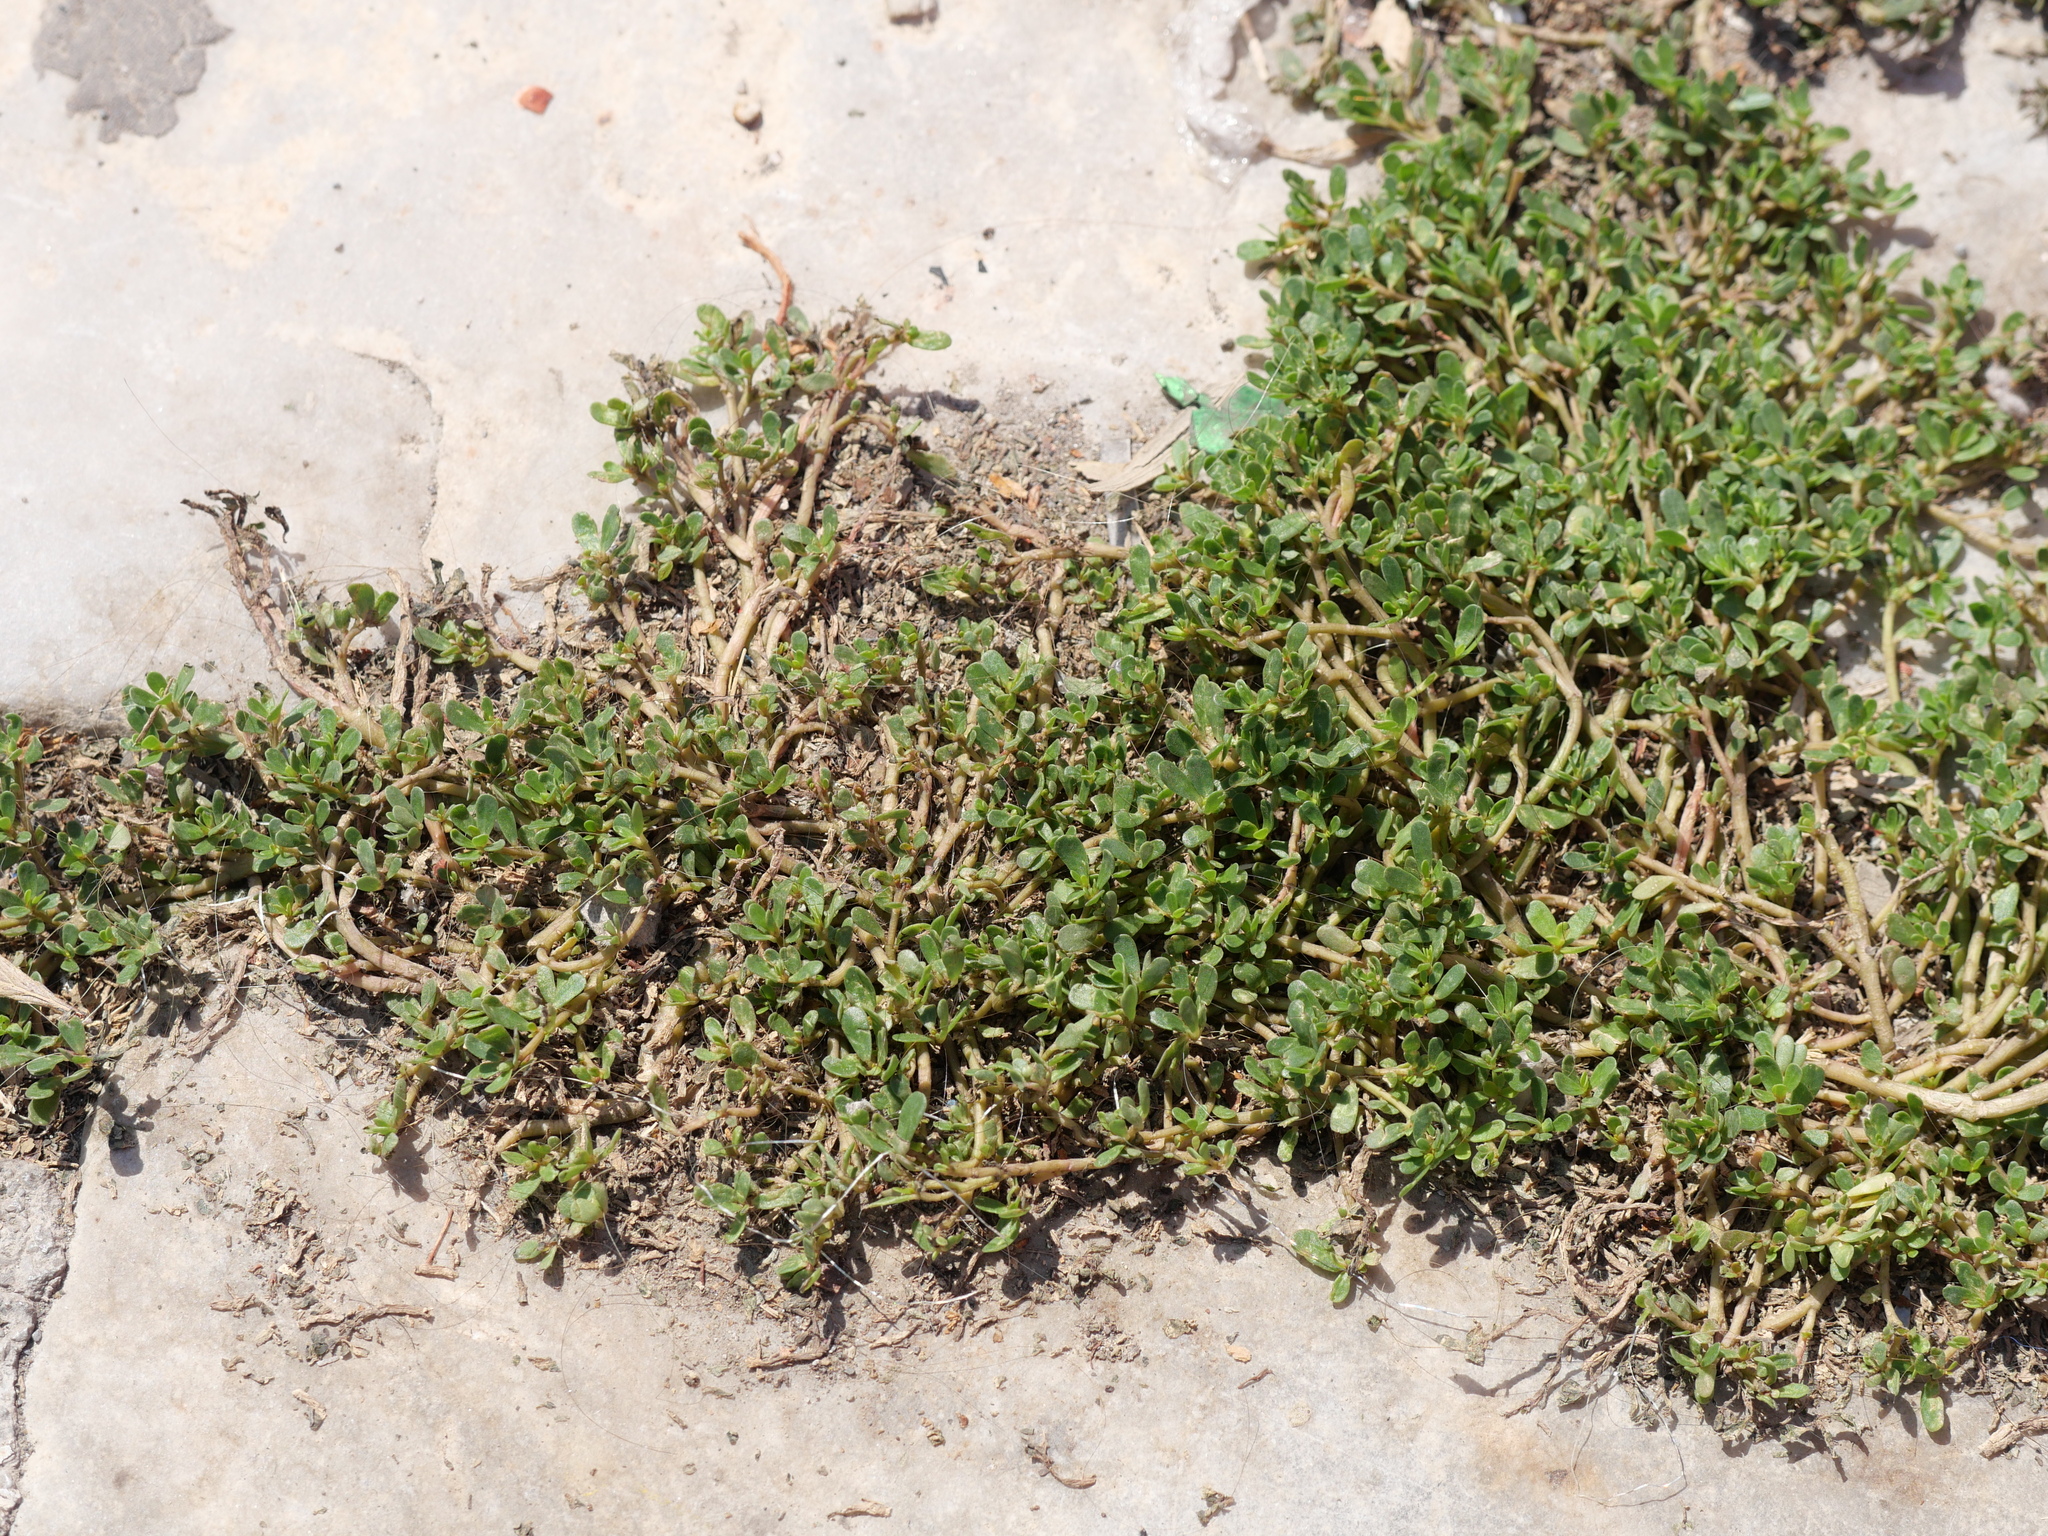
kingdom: Plantae
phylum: Tracheophyta
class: Magnoliopsida
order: Caryophyllales
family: Portulacaceae
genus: Portulaca
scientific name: Portulaca oleracea
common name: Common purslane
